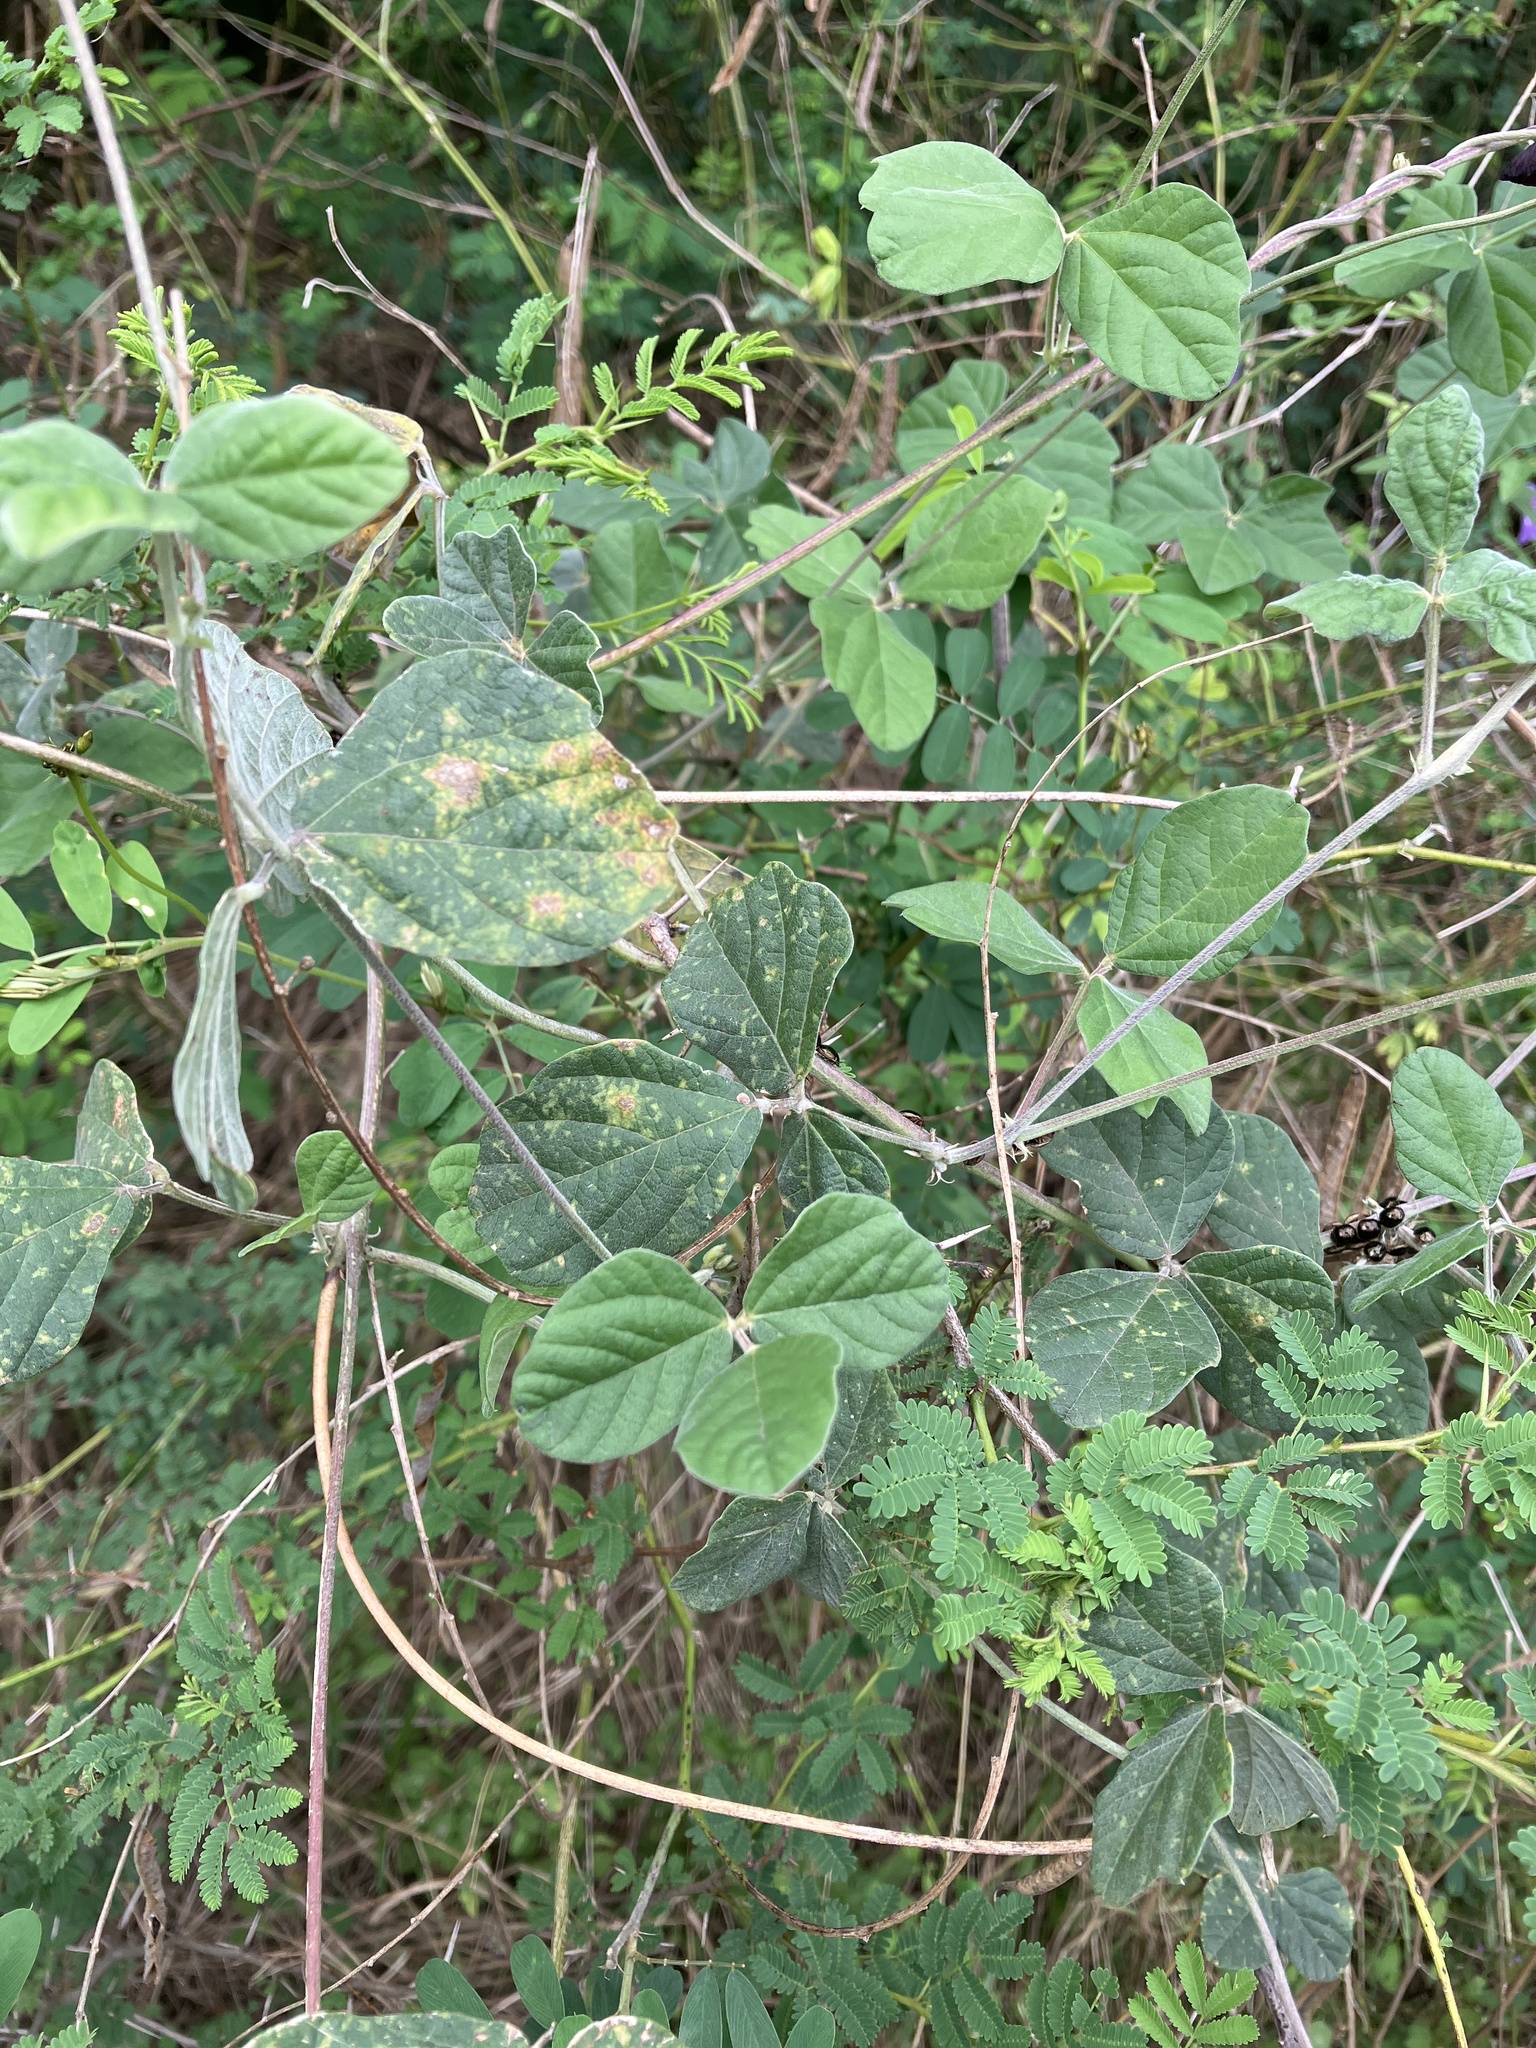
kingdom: Plantae
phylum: Tracheophyta
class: Magnoliopsida
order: Fabales
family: Fabaceae
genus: Macroptilium
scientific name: Macroptilium atropurpureum
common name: Purple bushbean
